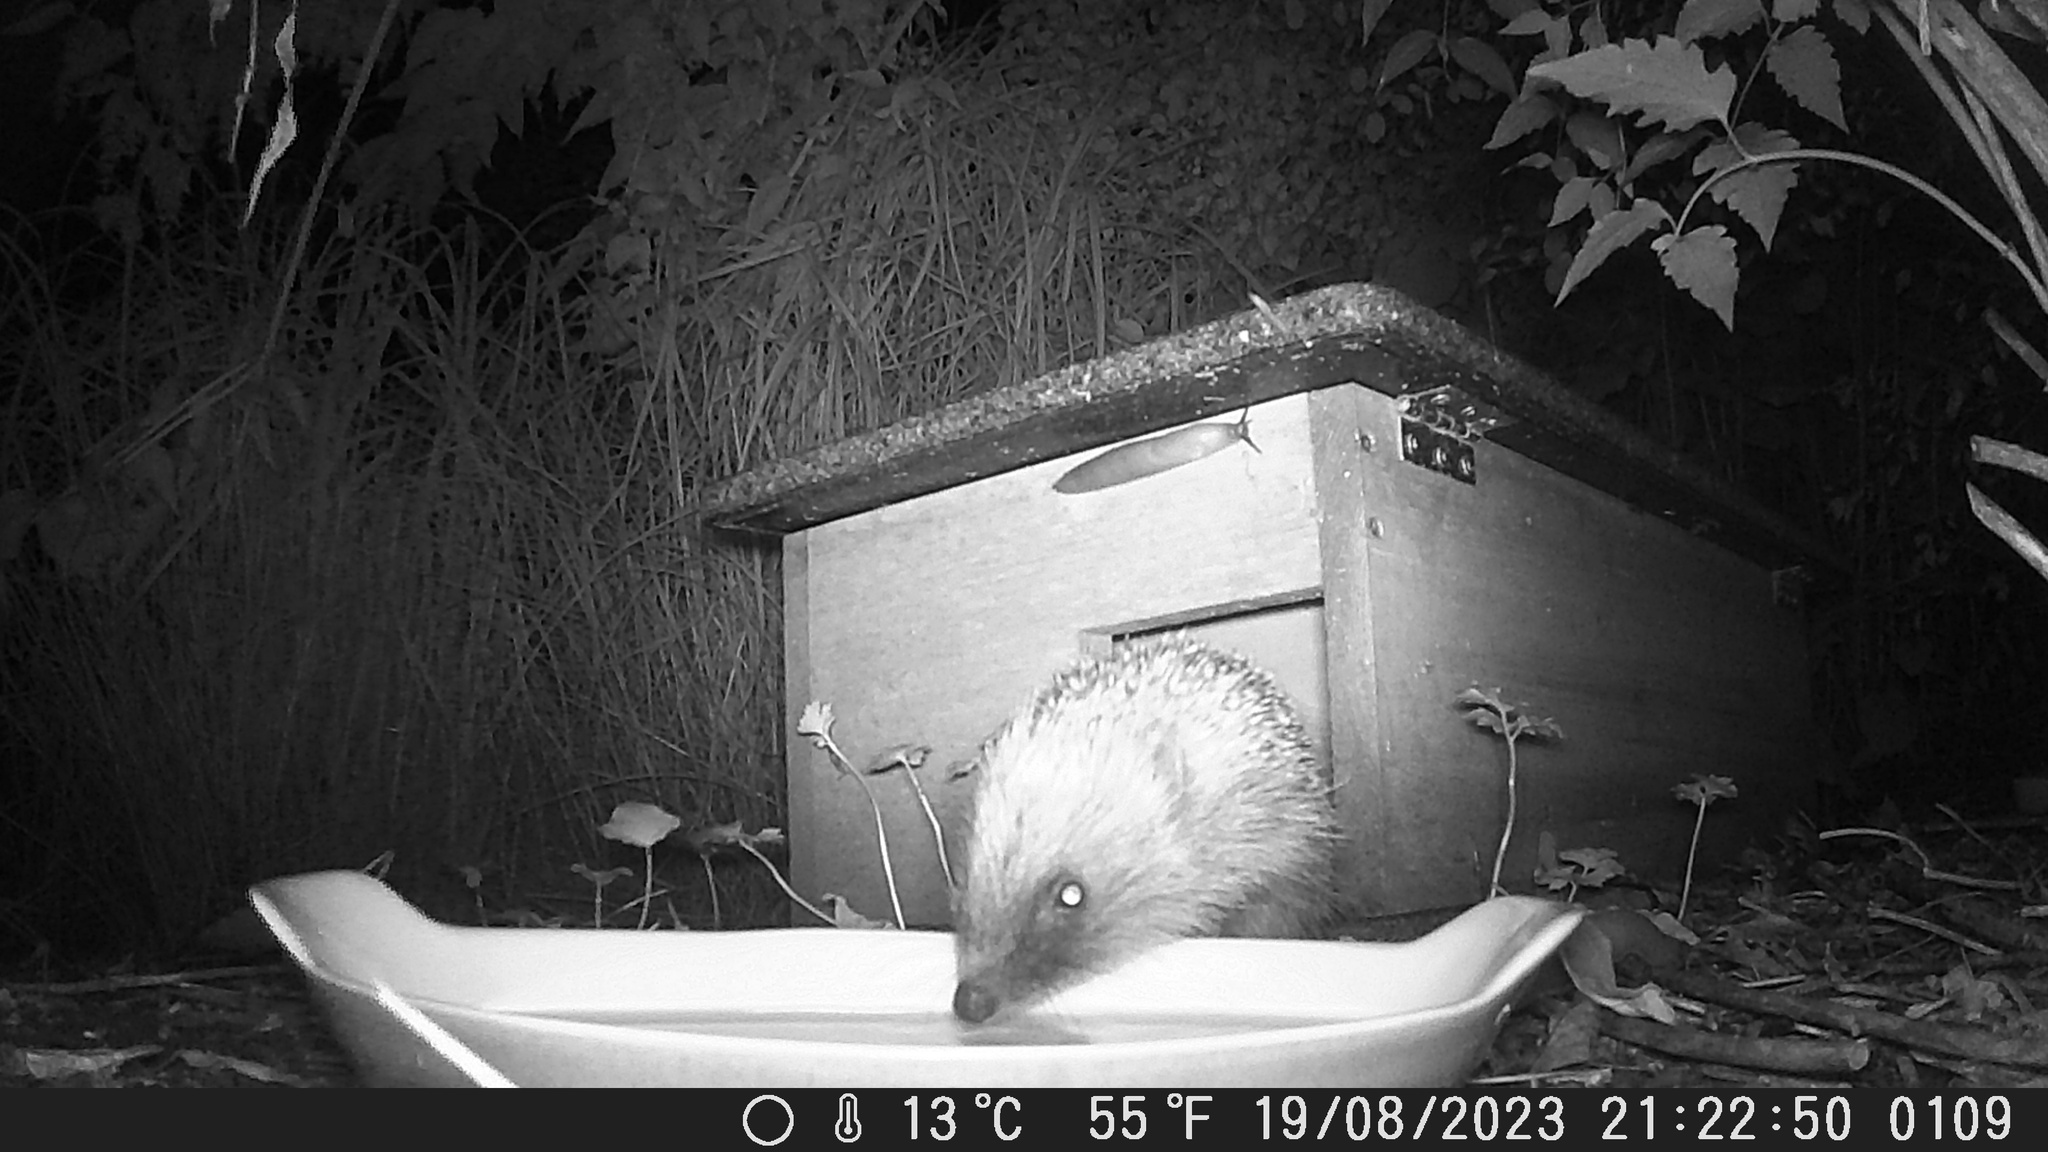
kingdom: Animalia
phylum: Chordata
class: Mammalia
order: Erinaceomorpha
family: Erinaceidae
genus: Erinaceus
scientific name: Erinaceus europaeus
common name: West european hedgehog
